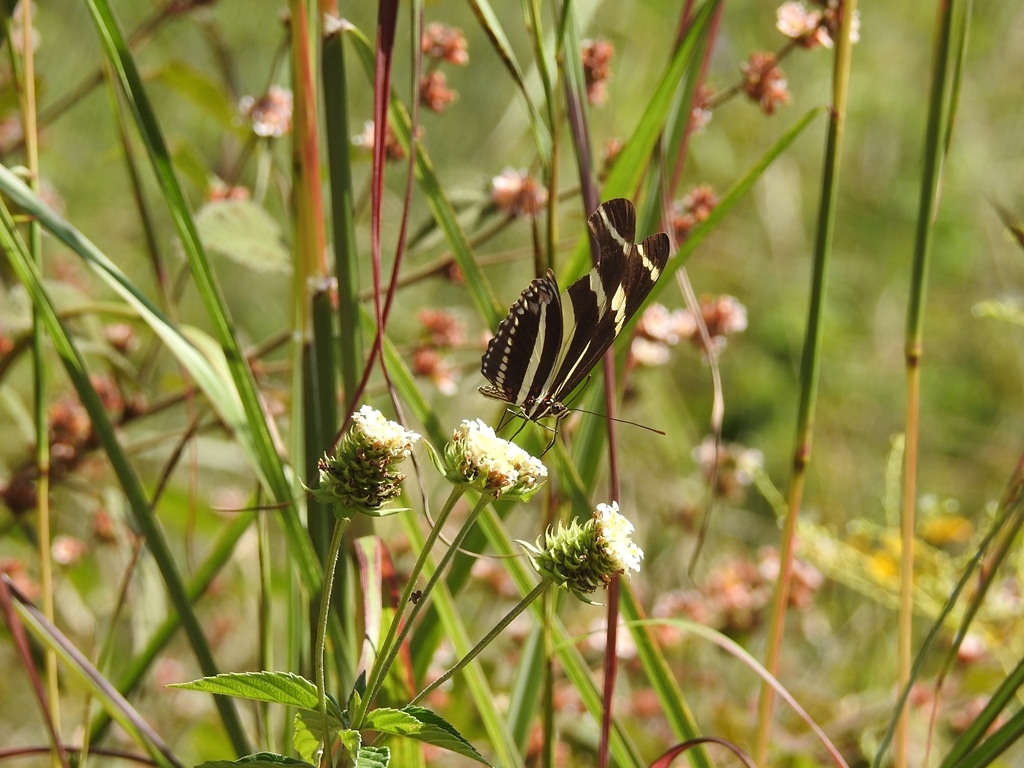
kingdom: Animalia
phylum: Arthropoda
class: Insecta
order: Lepidoptera
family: Nymphalidae
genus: Heliconius
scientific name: Heliconius charithonia
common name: Zebra long wing
